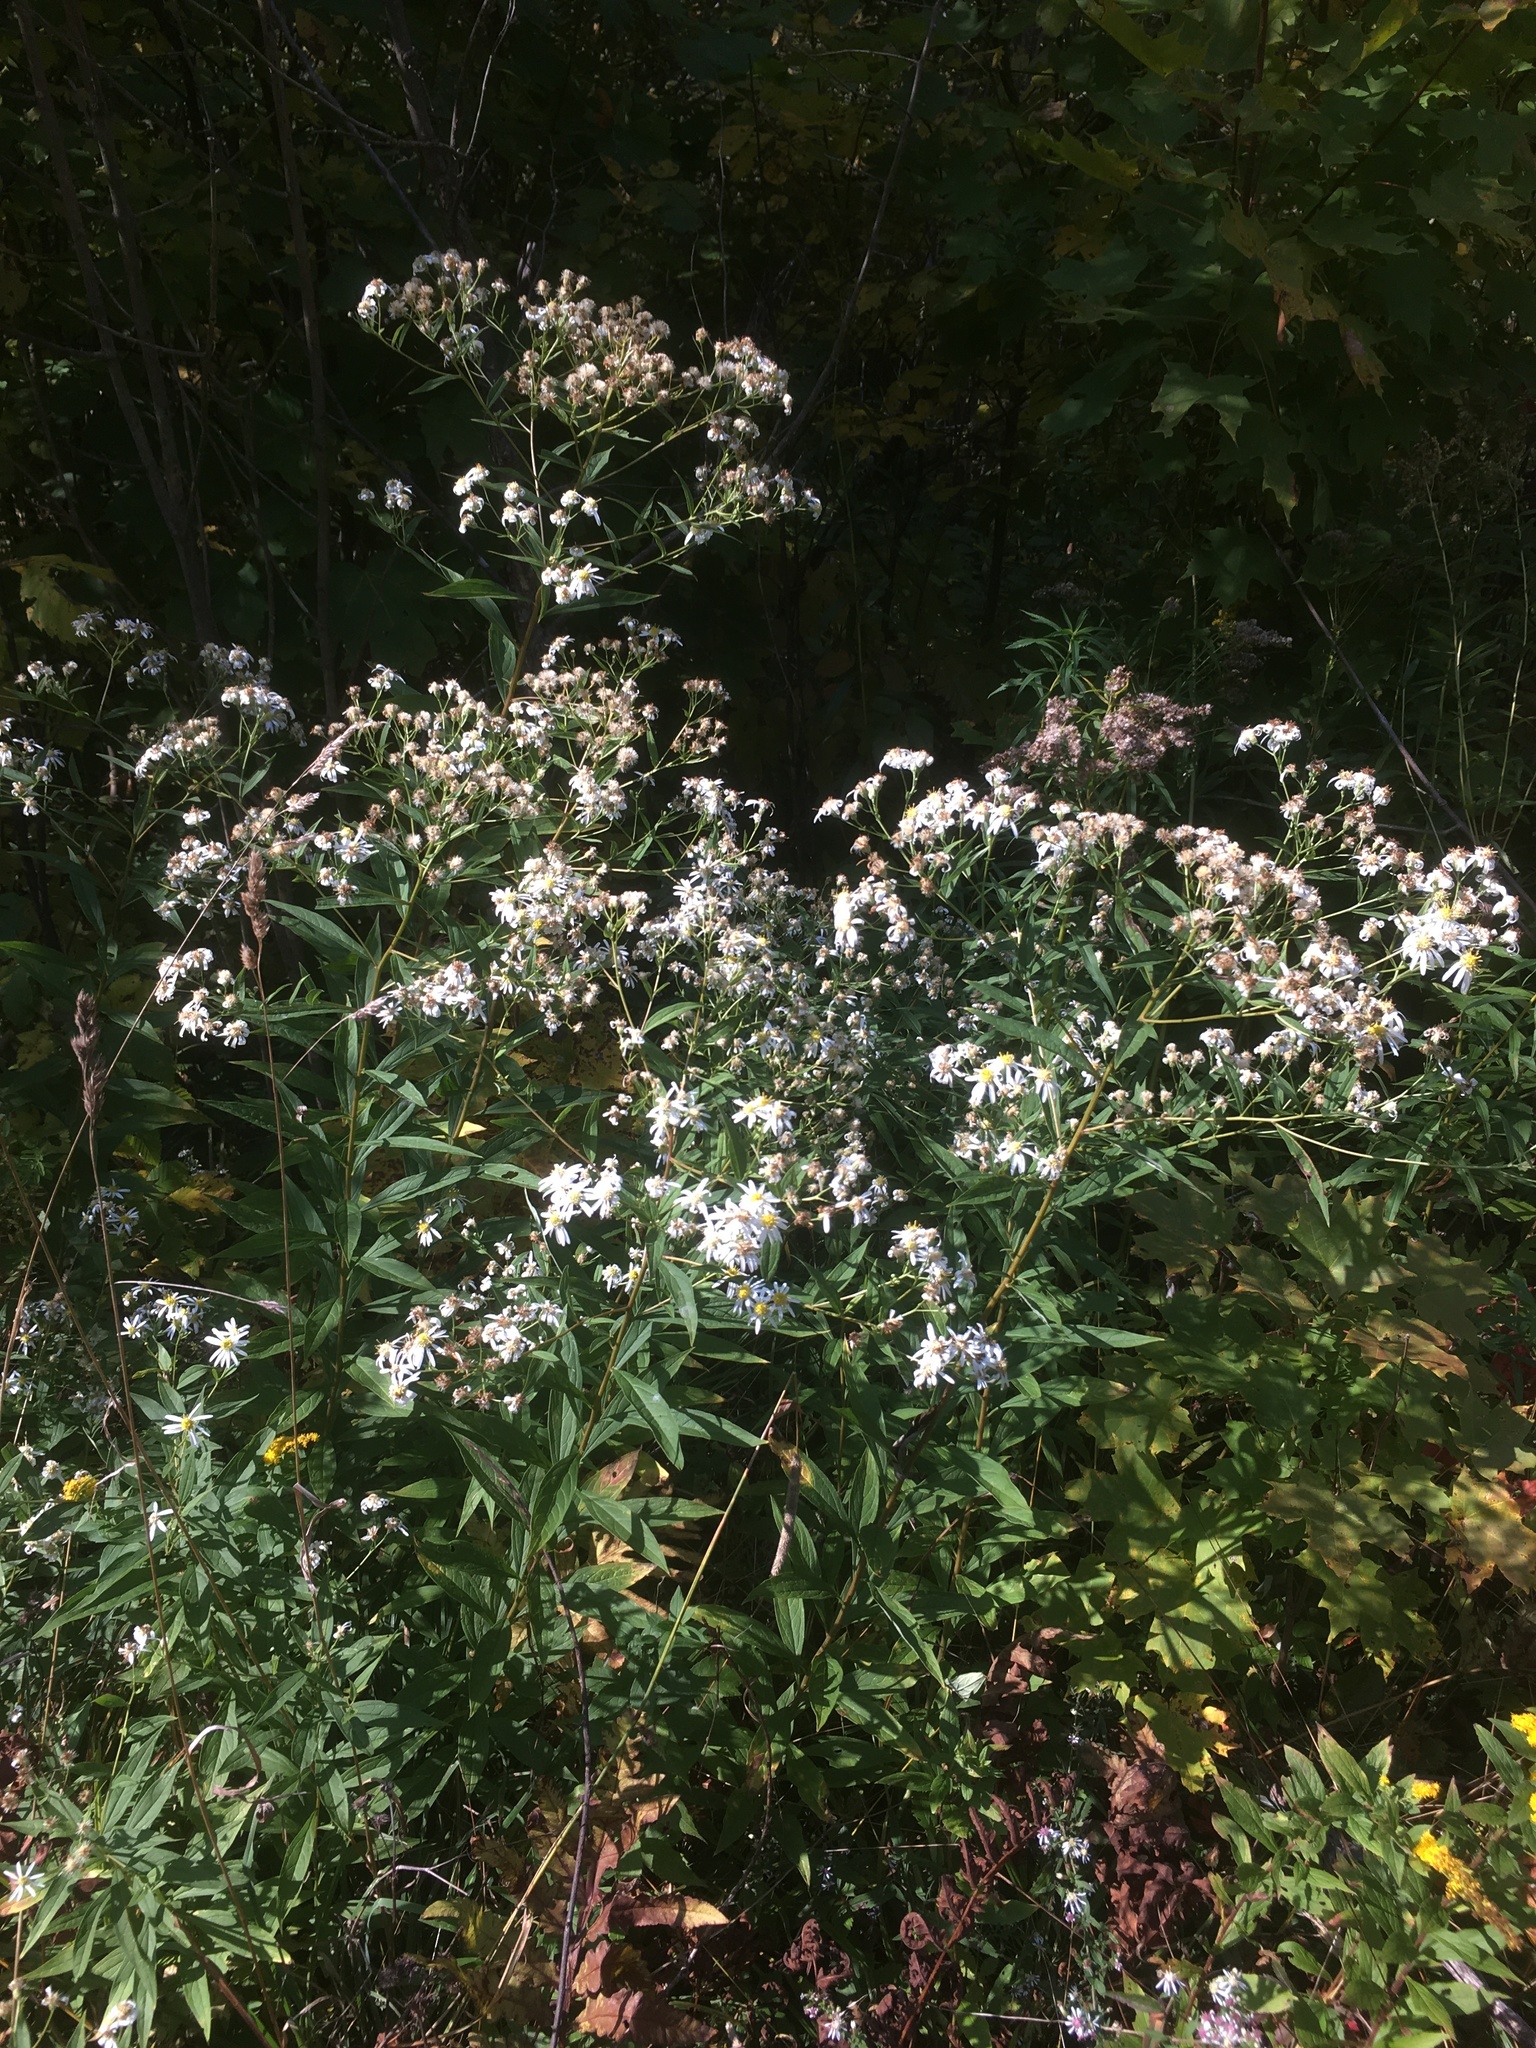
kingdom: Plantae
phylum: Tracheophyta
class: Magnoliopsida
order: Asterales
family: Asteraceae
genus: Doellingeria
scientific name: Doellingeria umbellata
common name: Flat-top white aster
